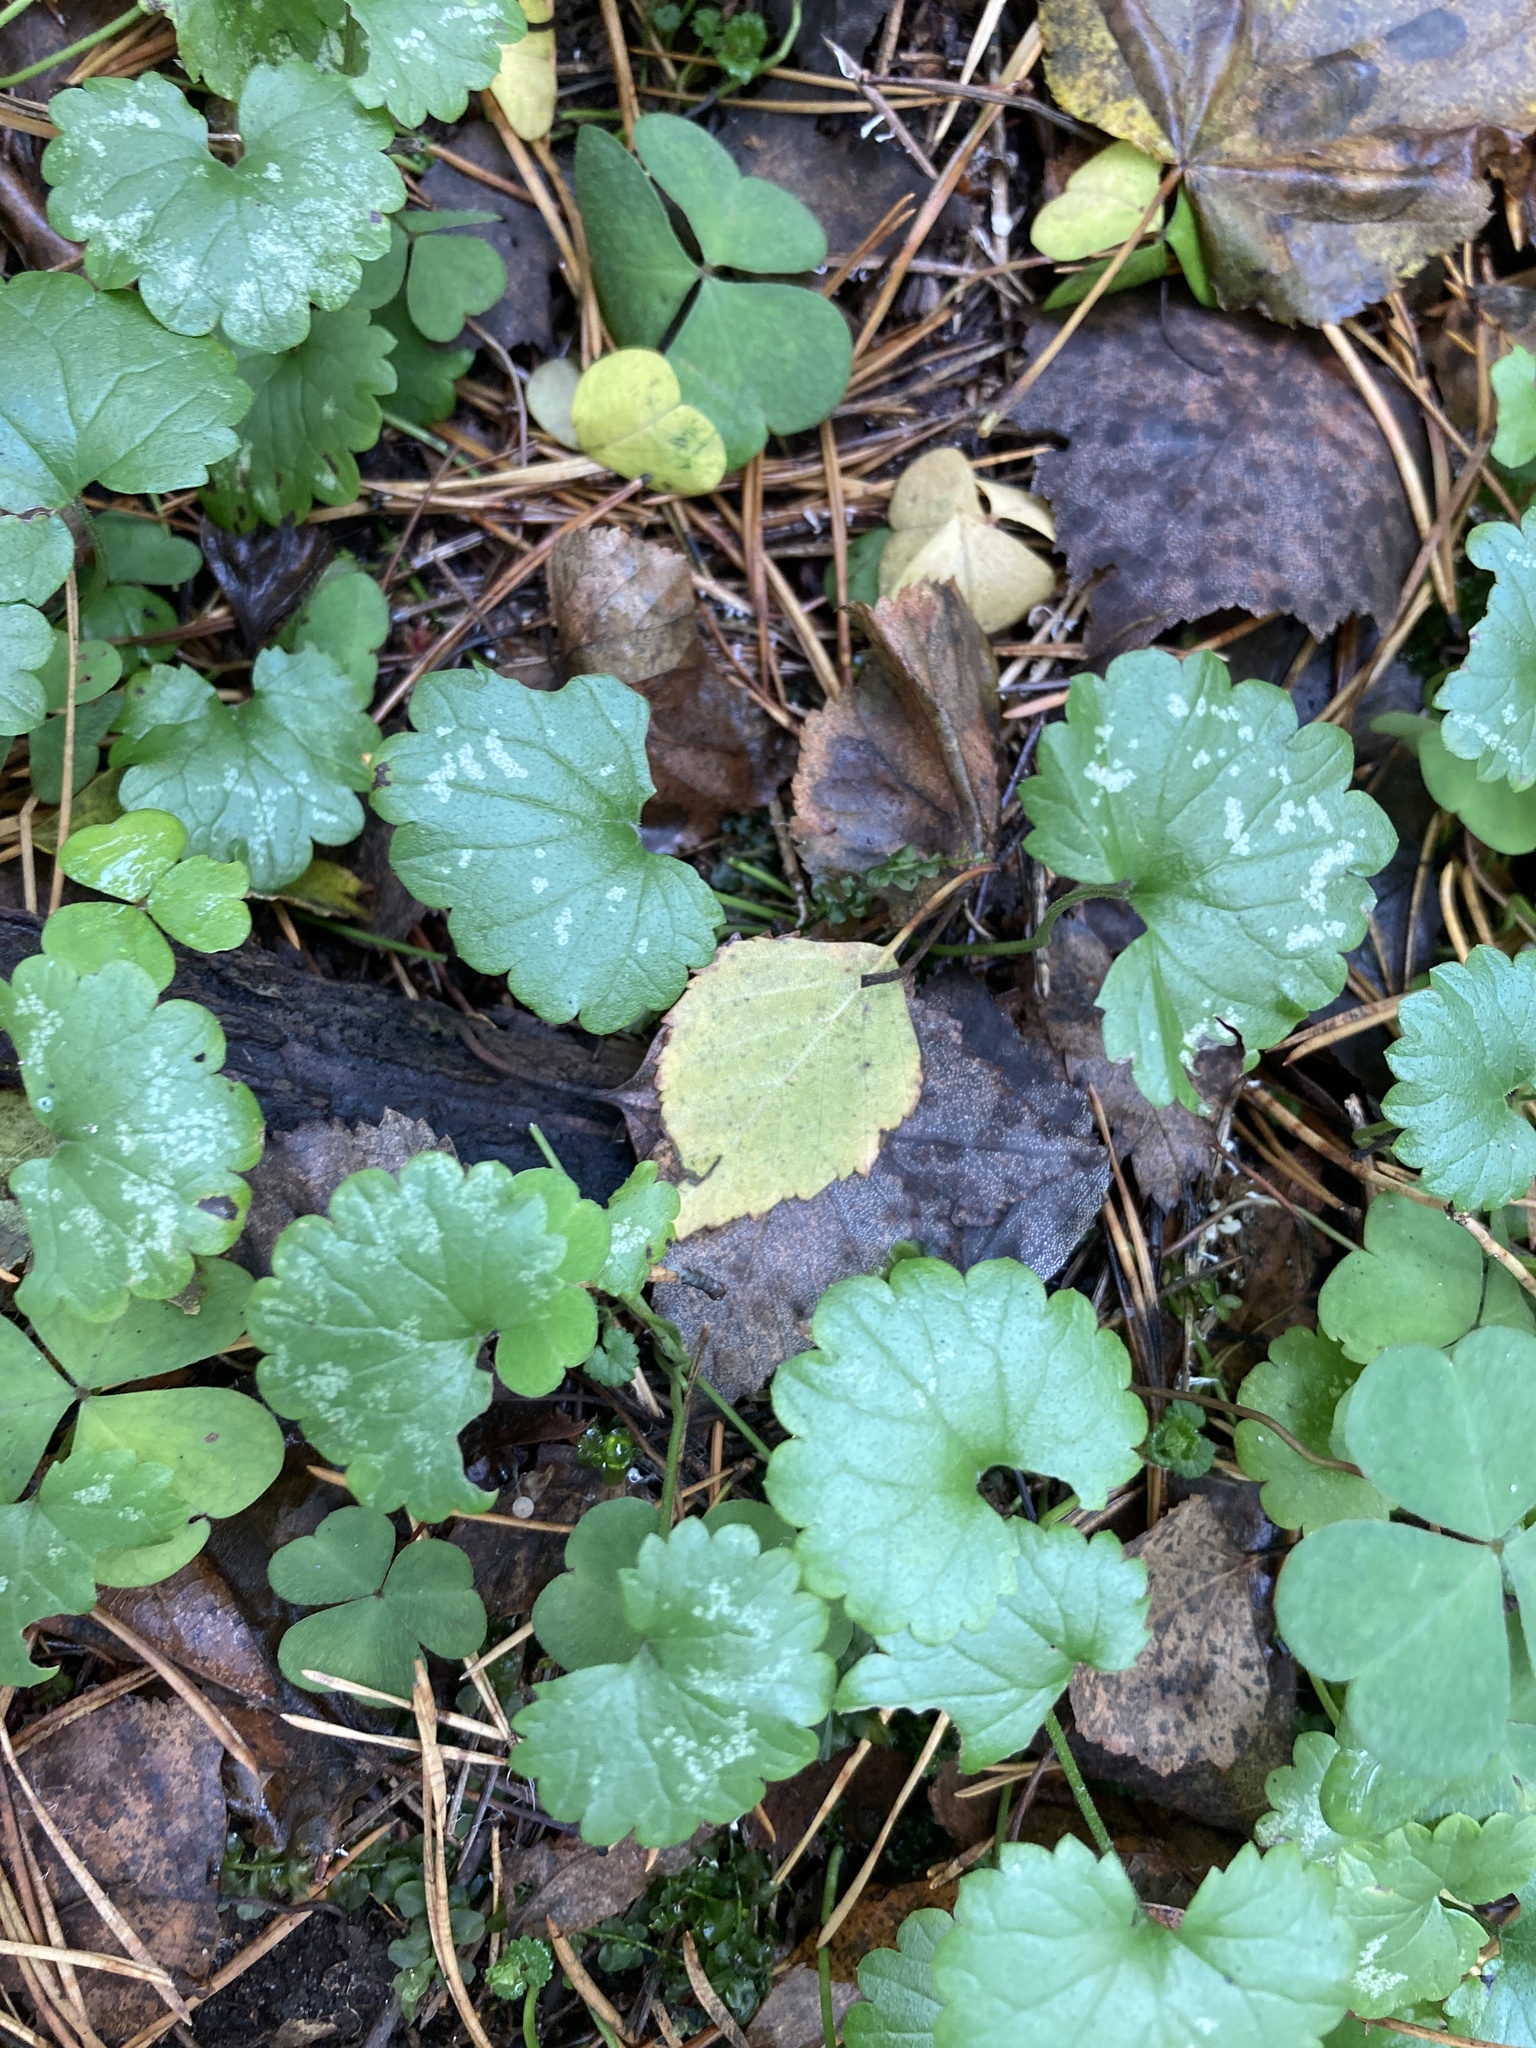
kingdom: Plantae
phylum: Tracheophyta
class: Magnoliopsida
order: Lamiales
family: Lamiaceae
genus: Glechoma
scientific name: Glechoma hederacea
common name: Ground ivy
